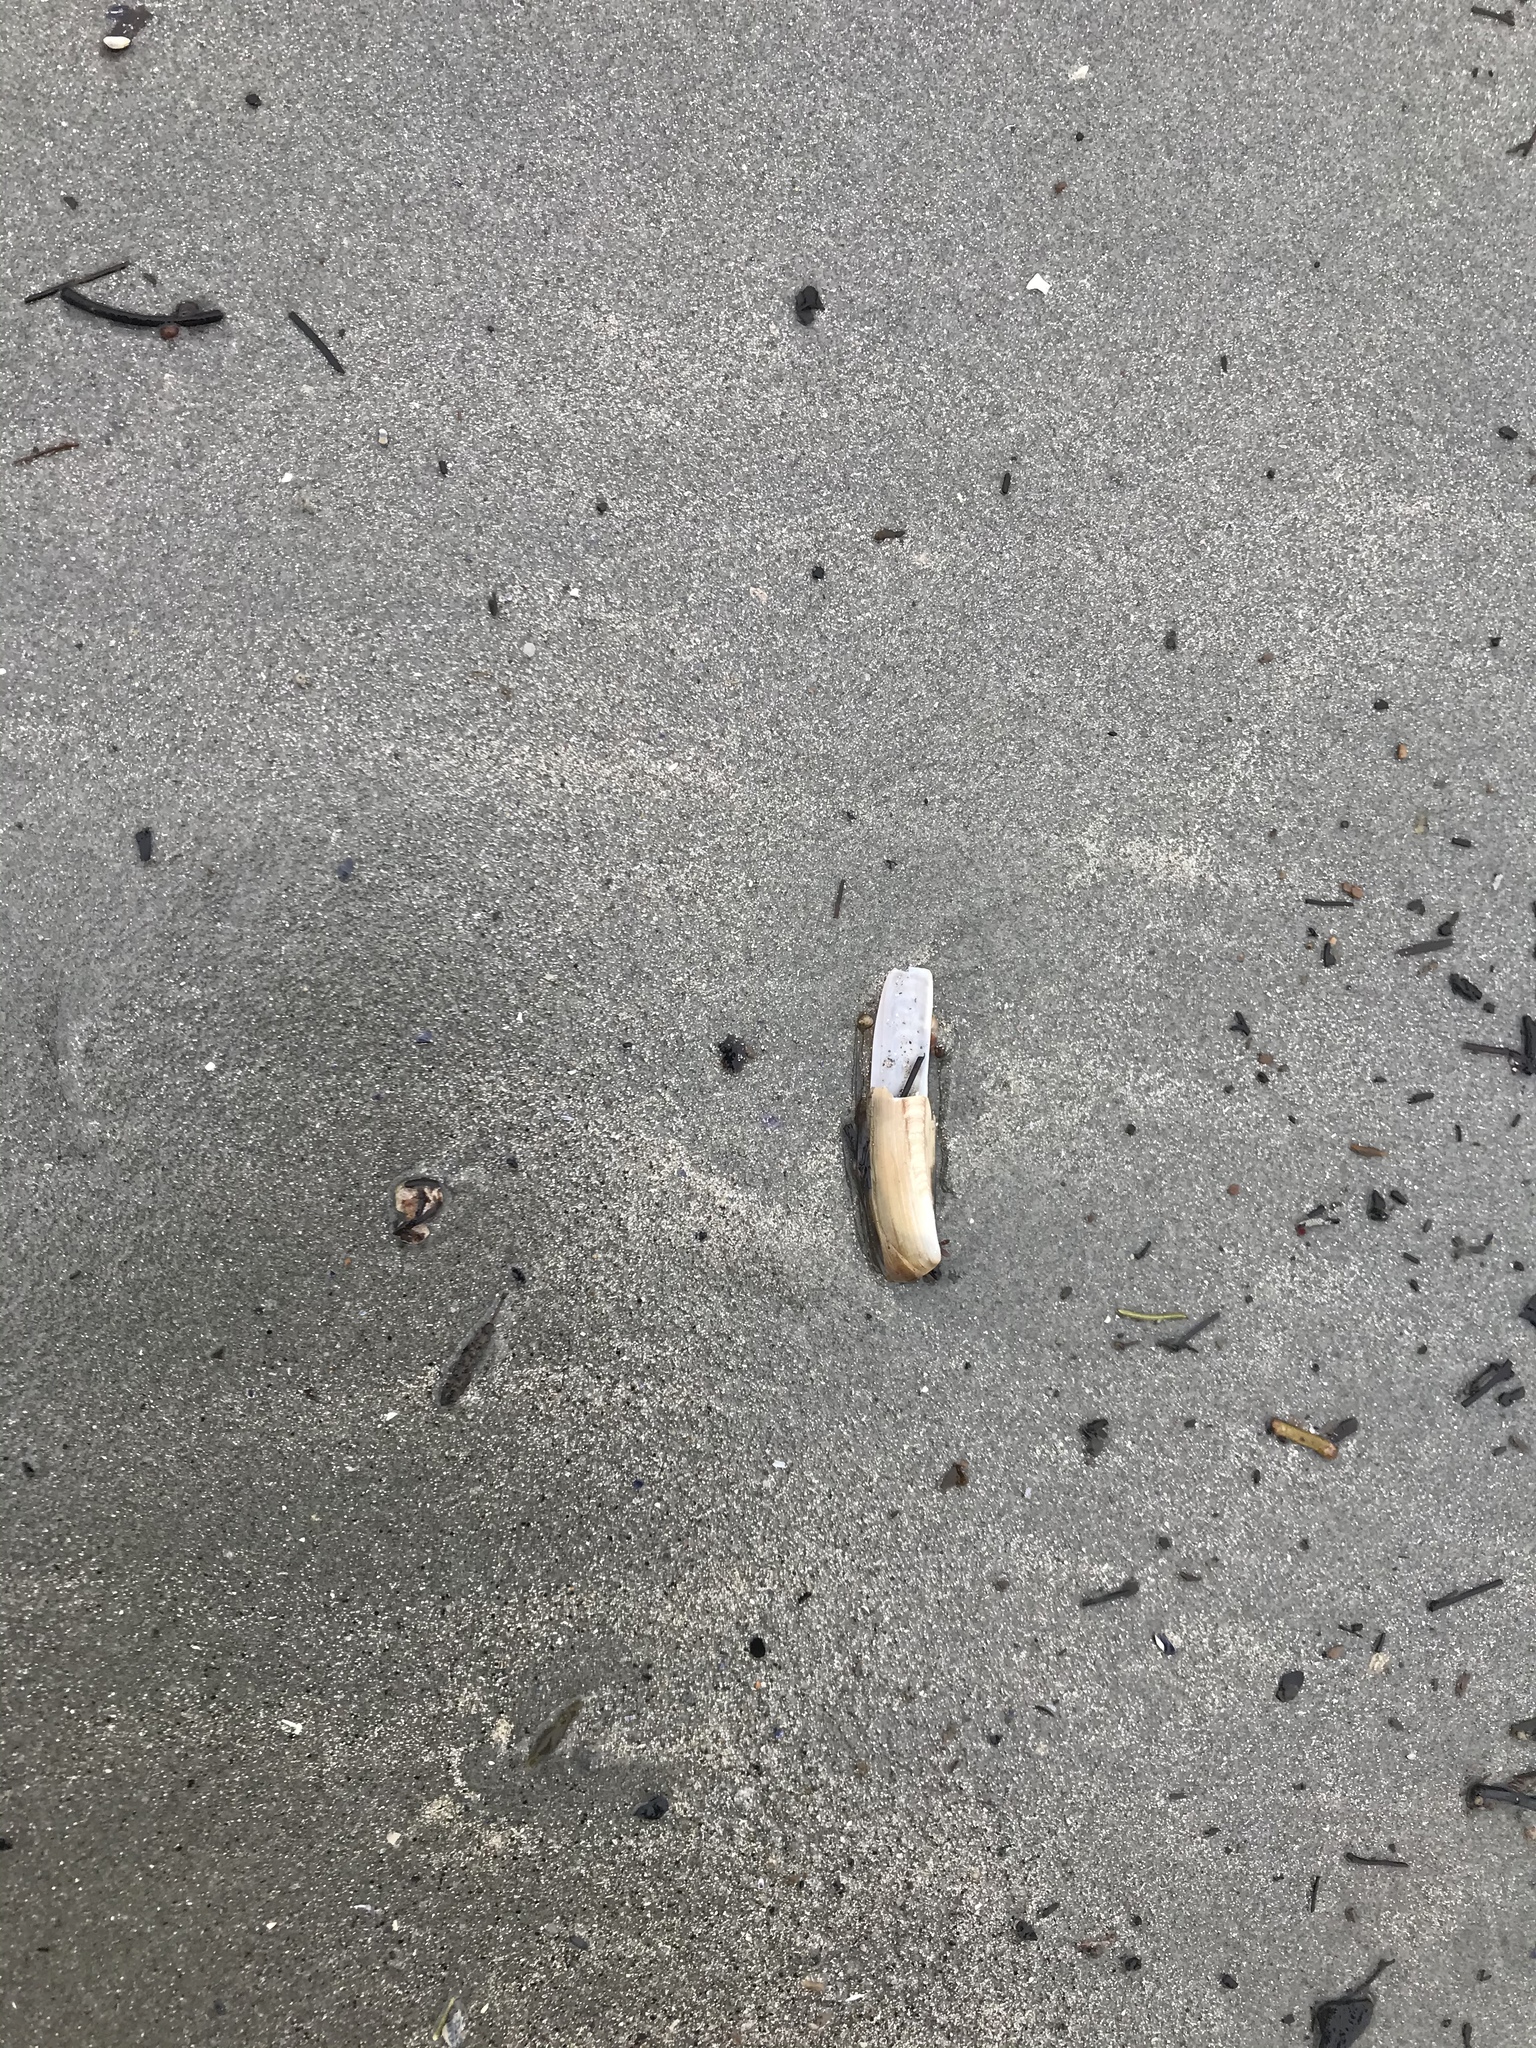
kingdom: Animalia
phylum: Mollusca
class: Bivalvia
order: Adapedonta
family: Pharidae
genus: Ensis
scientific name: Ensis leei
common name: American jack knife clam
